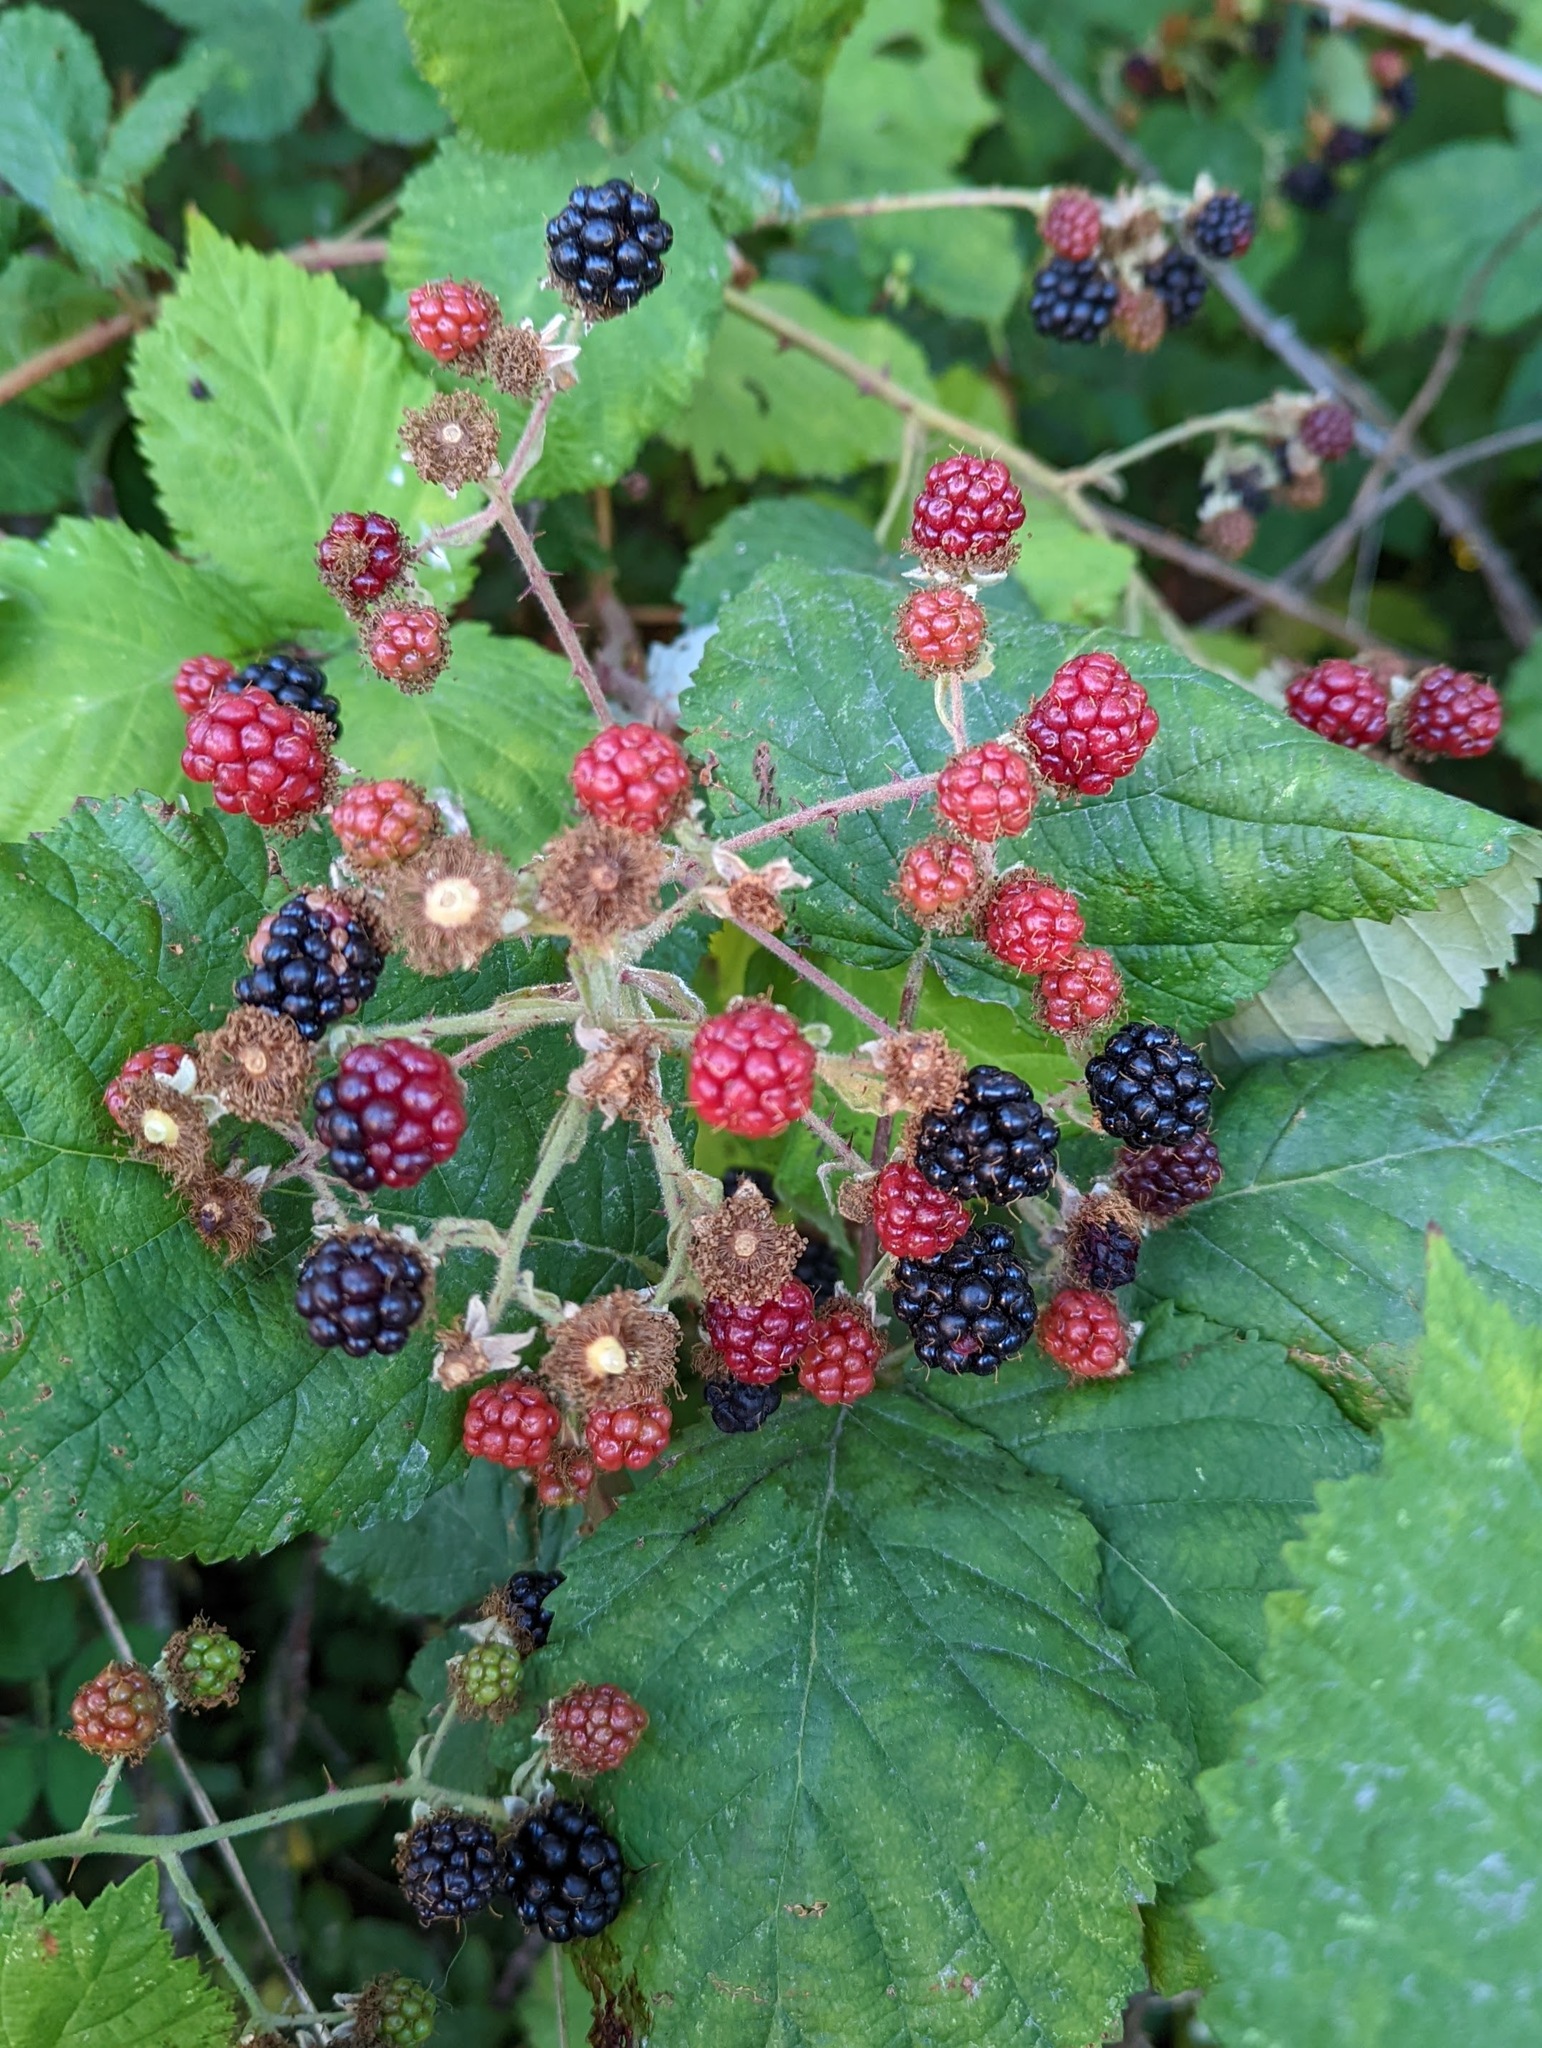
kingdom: Plantae
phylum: Tracheophyta
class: Magnoliopsida
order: Rosales
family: Rosaceae
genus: Rubus
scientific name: Rubus bifrons
